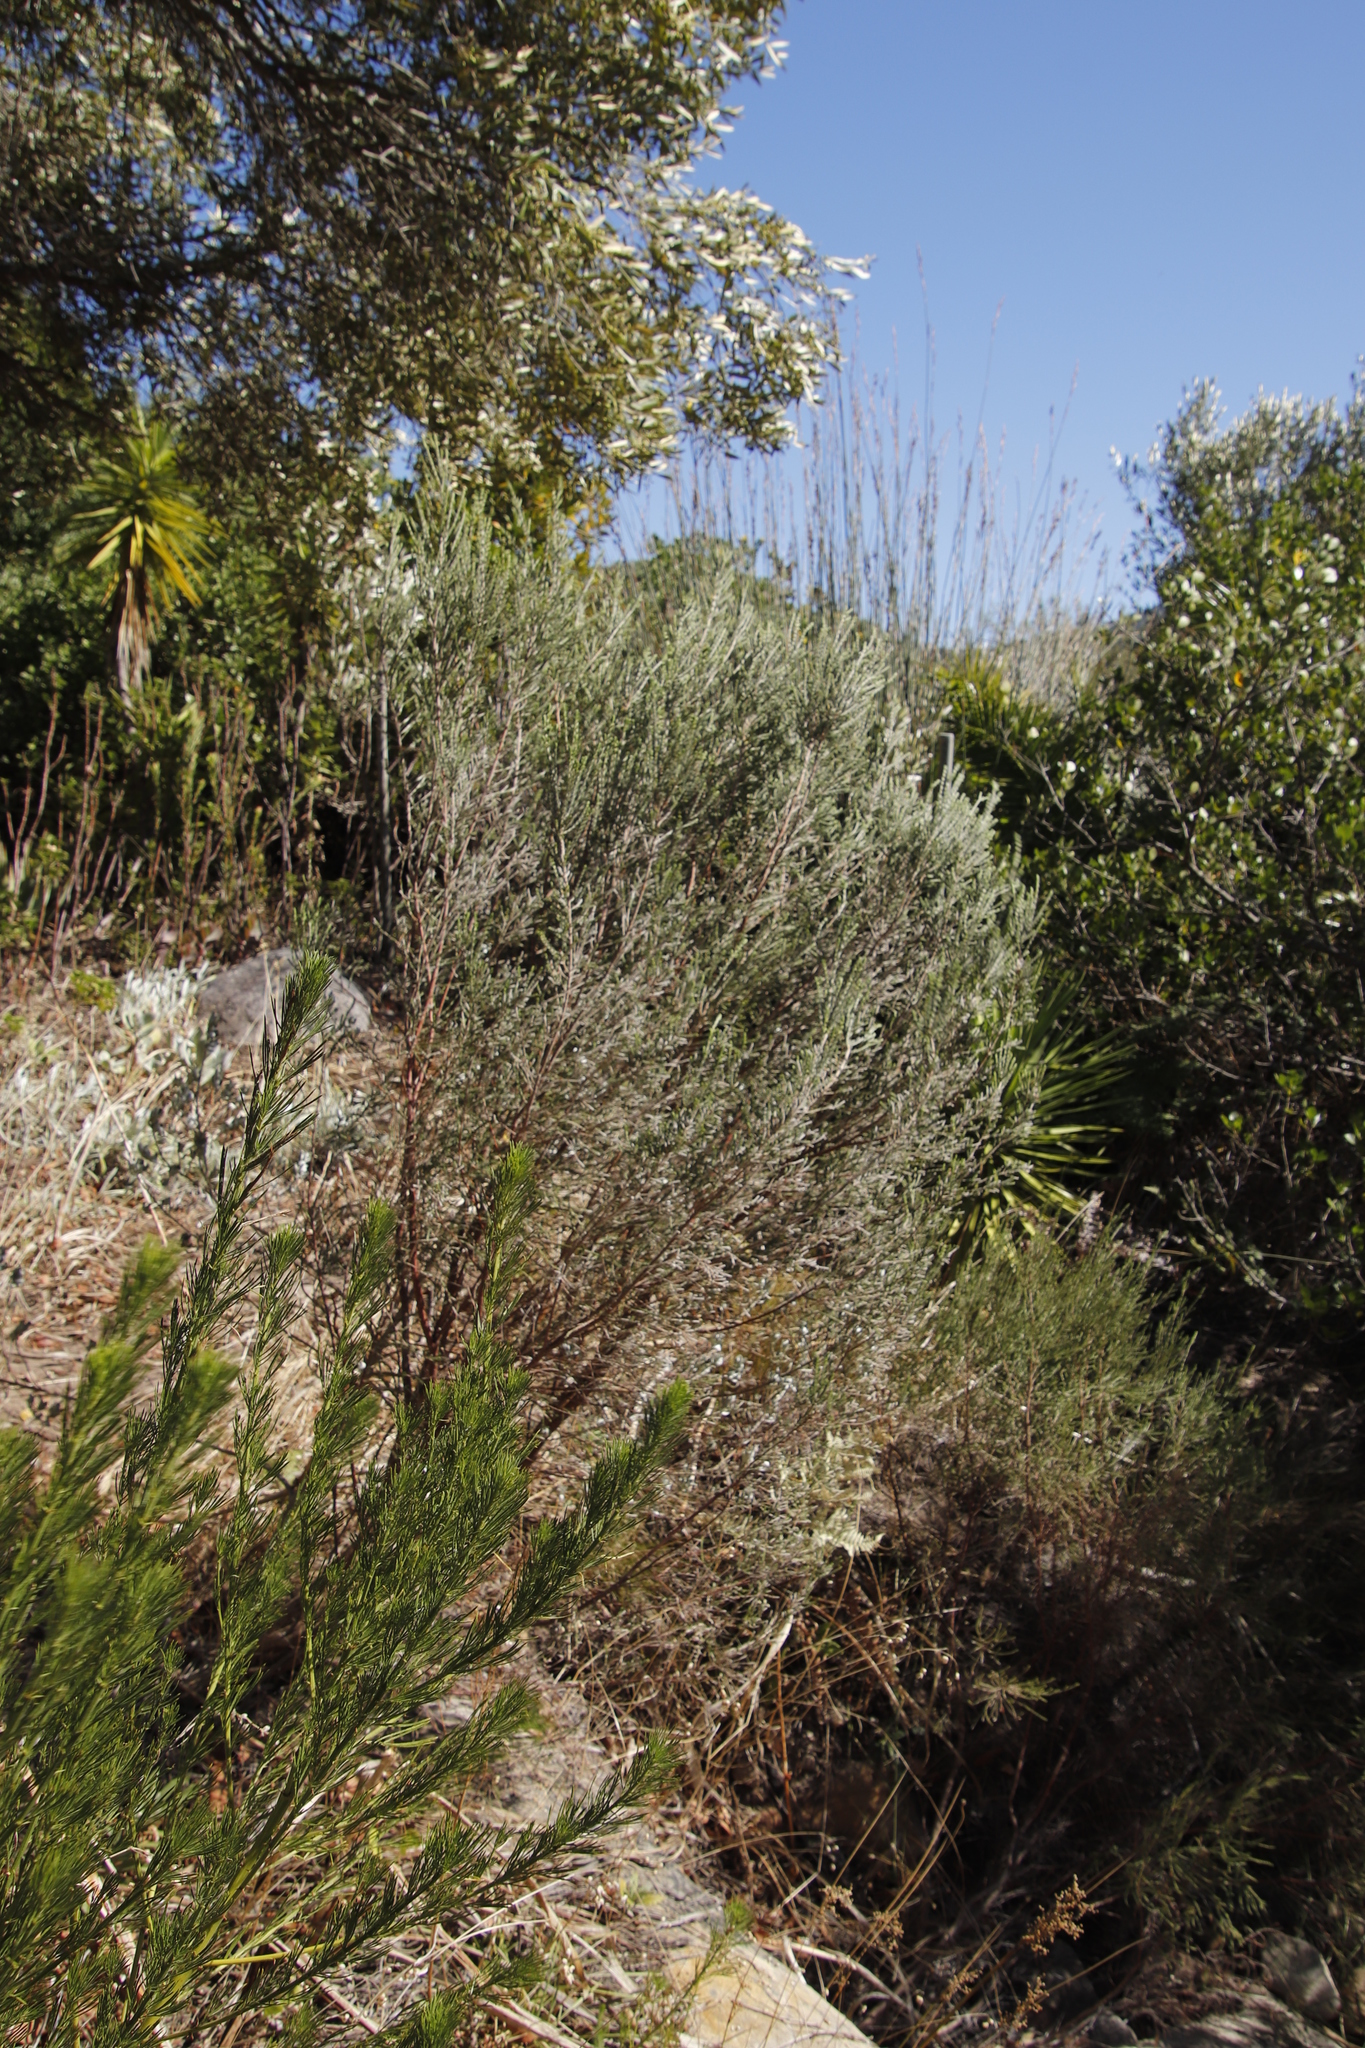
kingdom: Plantae
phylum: Tracheophyta
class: Magnoliopsida
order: Malvales
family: Thymelaeaceae
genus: Passerina
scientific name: Passerina corymbosa
